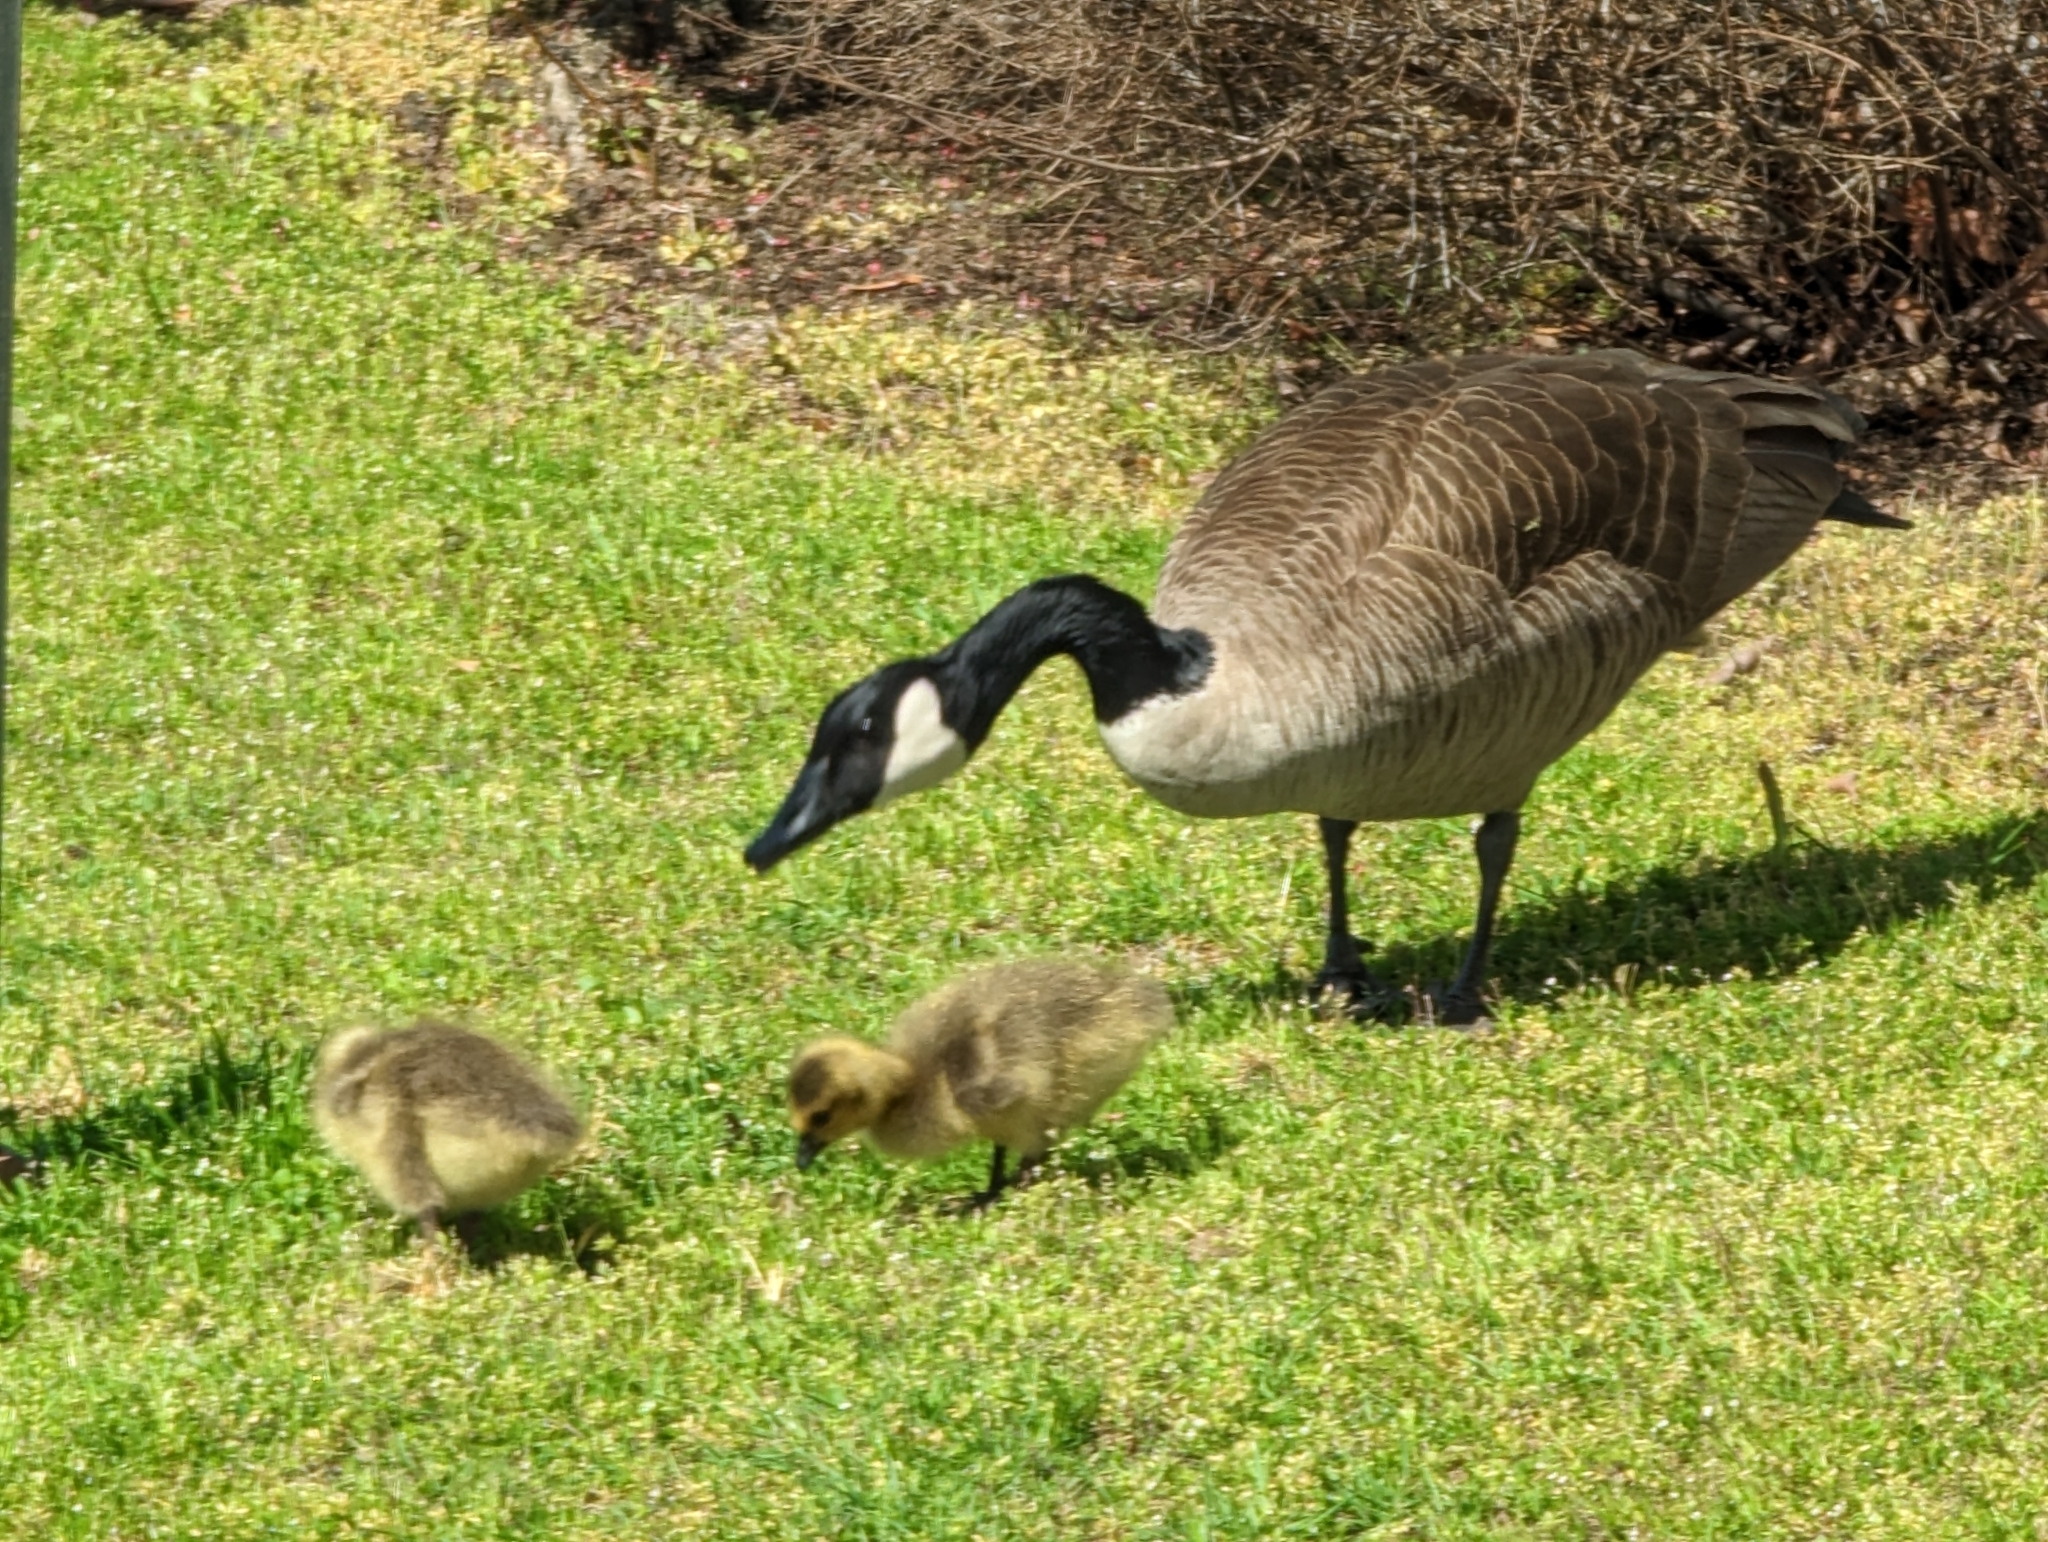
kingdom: Animalia
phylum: Chordata
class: Aves
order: Anseriformes
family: Anatidae
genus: Branta
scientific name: Branta canadensis
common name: Canada goose
